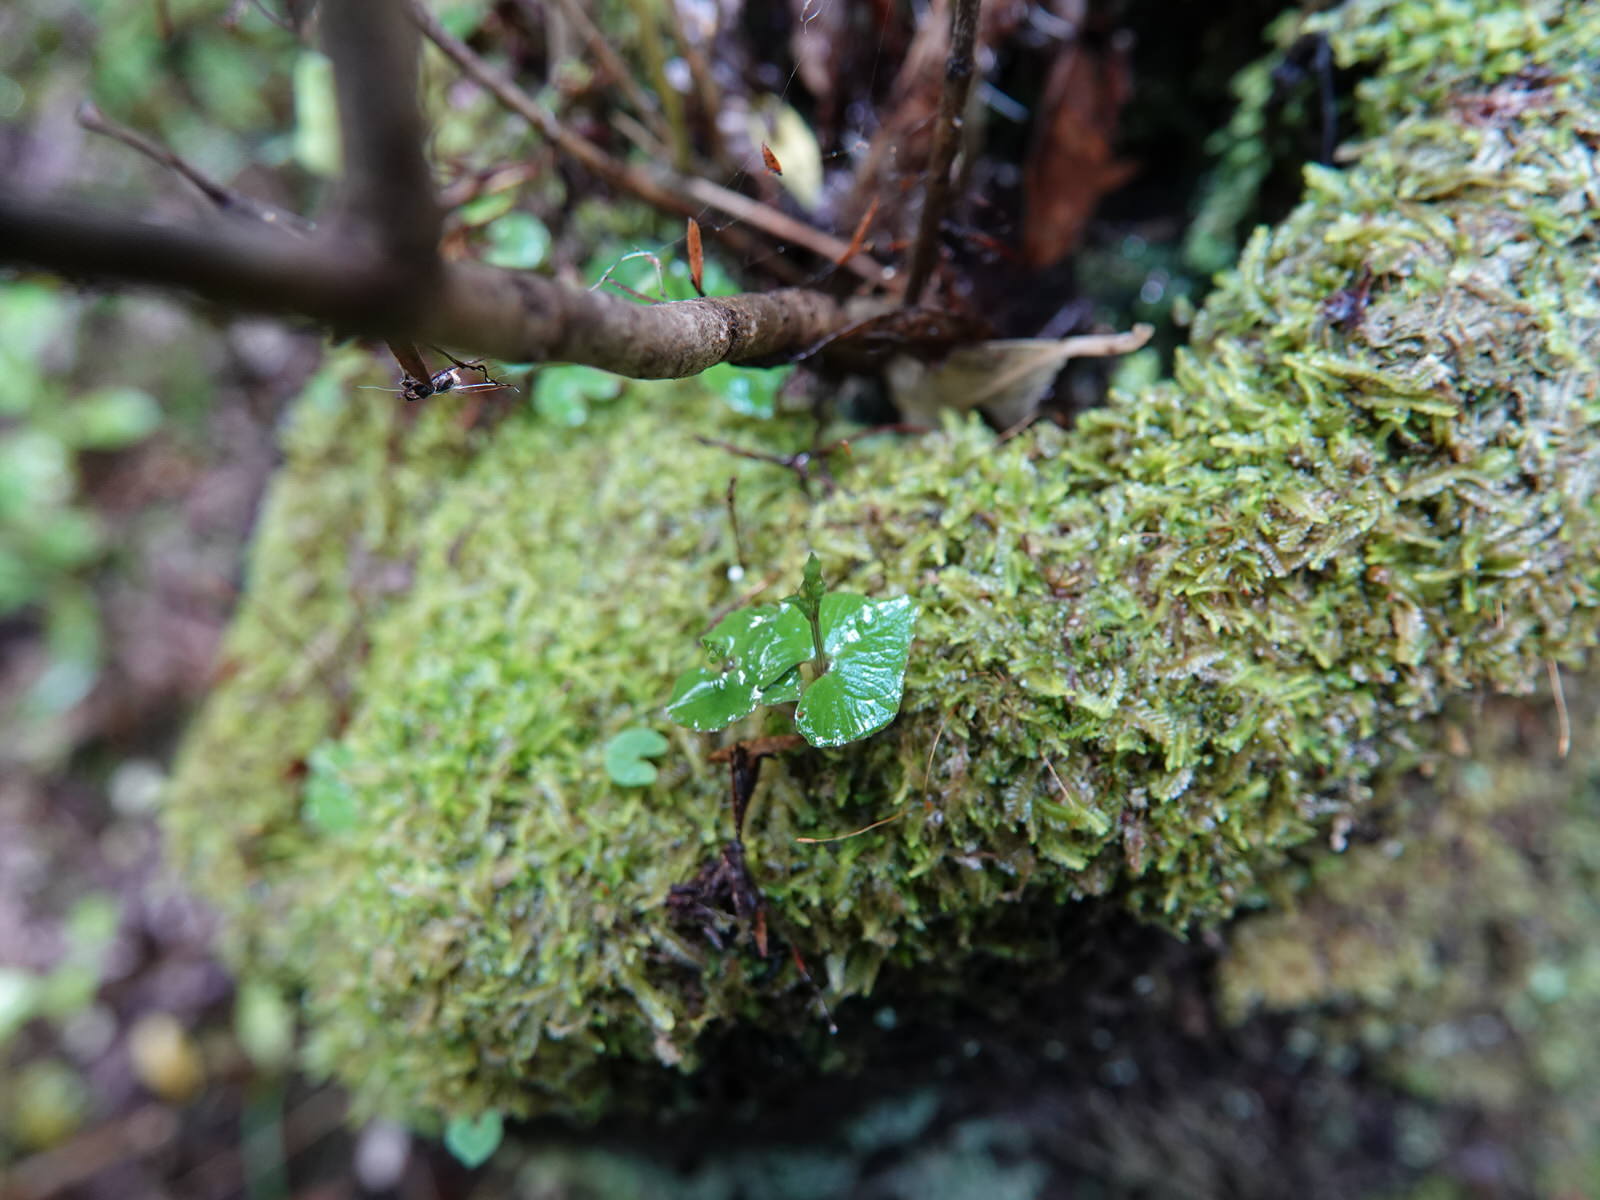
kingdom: Plantae
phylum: Tracheophyta
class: Liliopsida
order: Asparagales
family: Orchidaceae
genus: Acianthus
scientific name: Acianthus sinclairii
